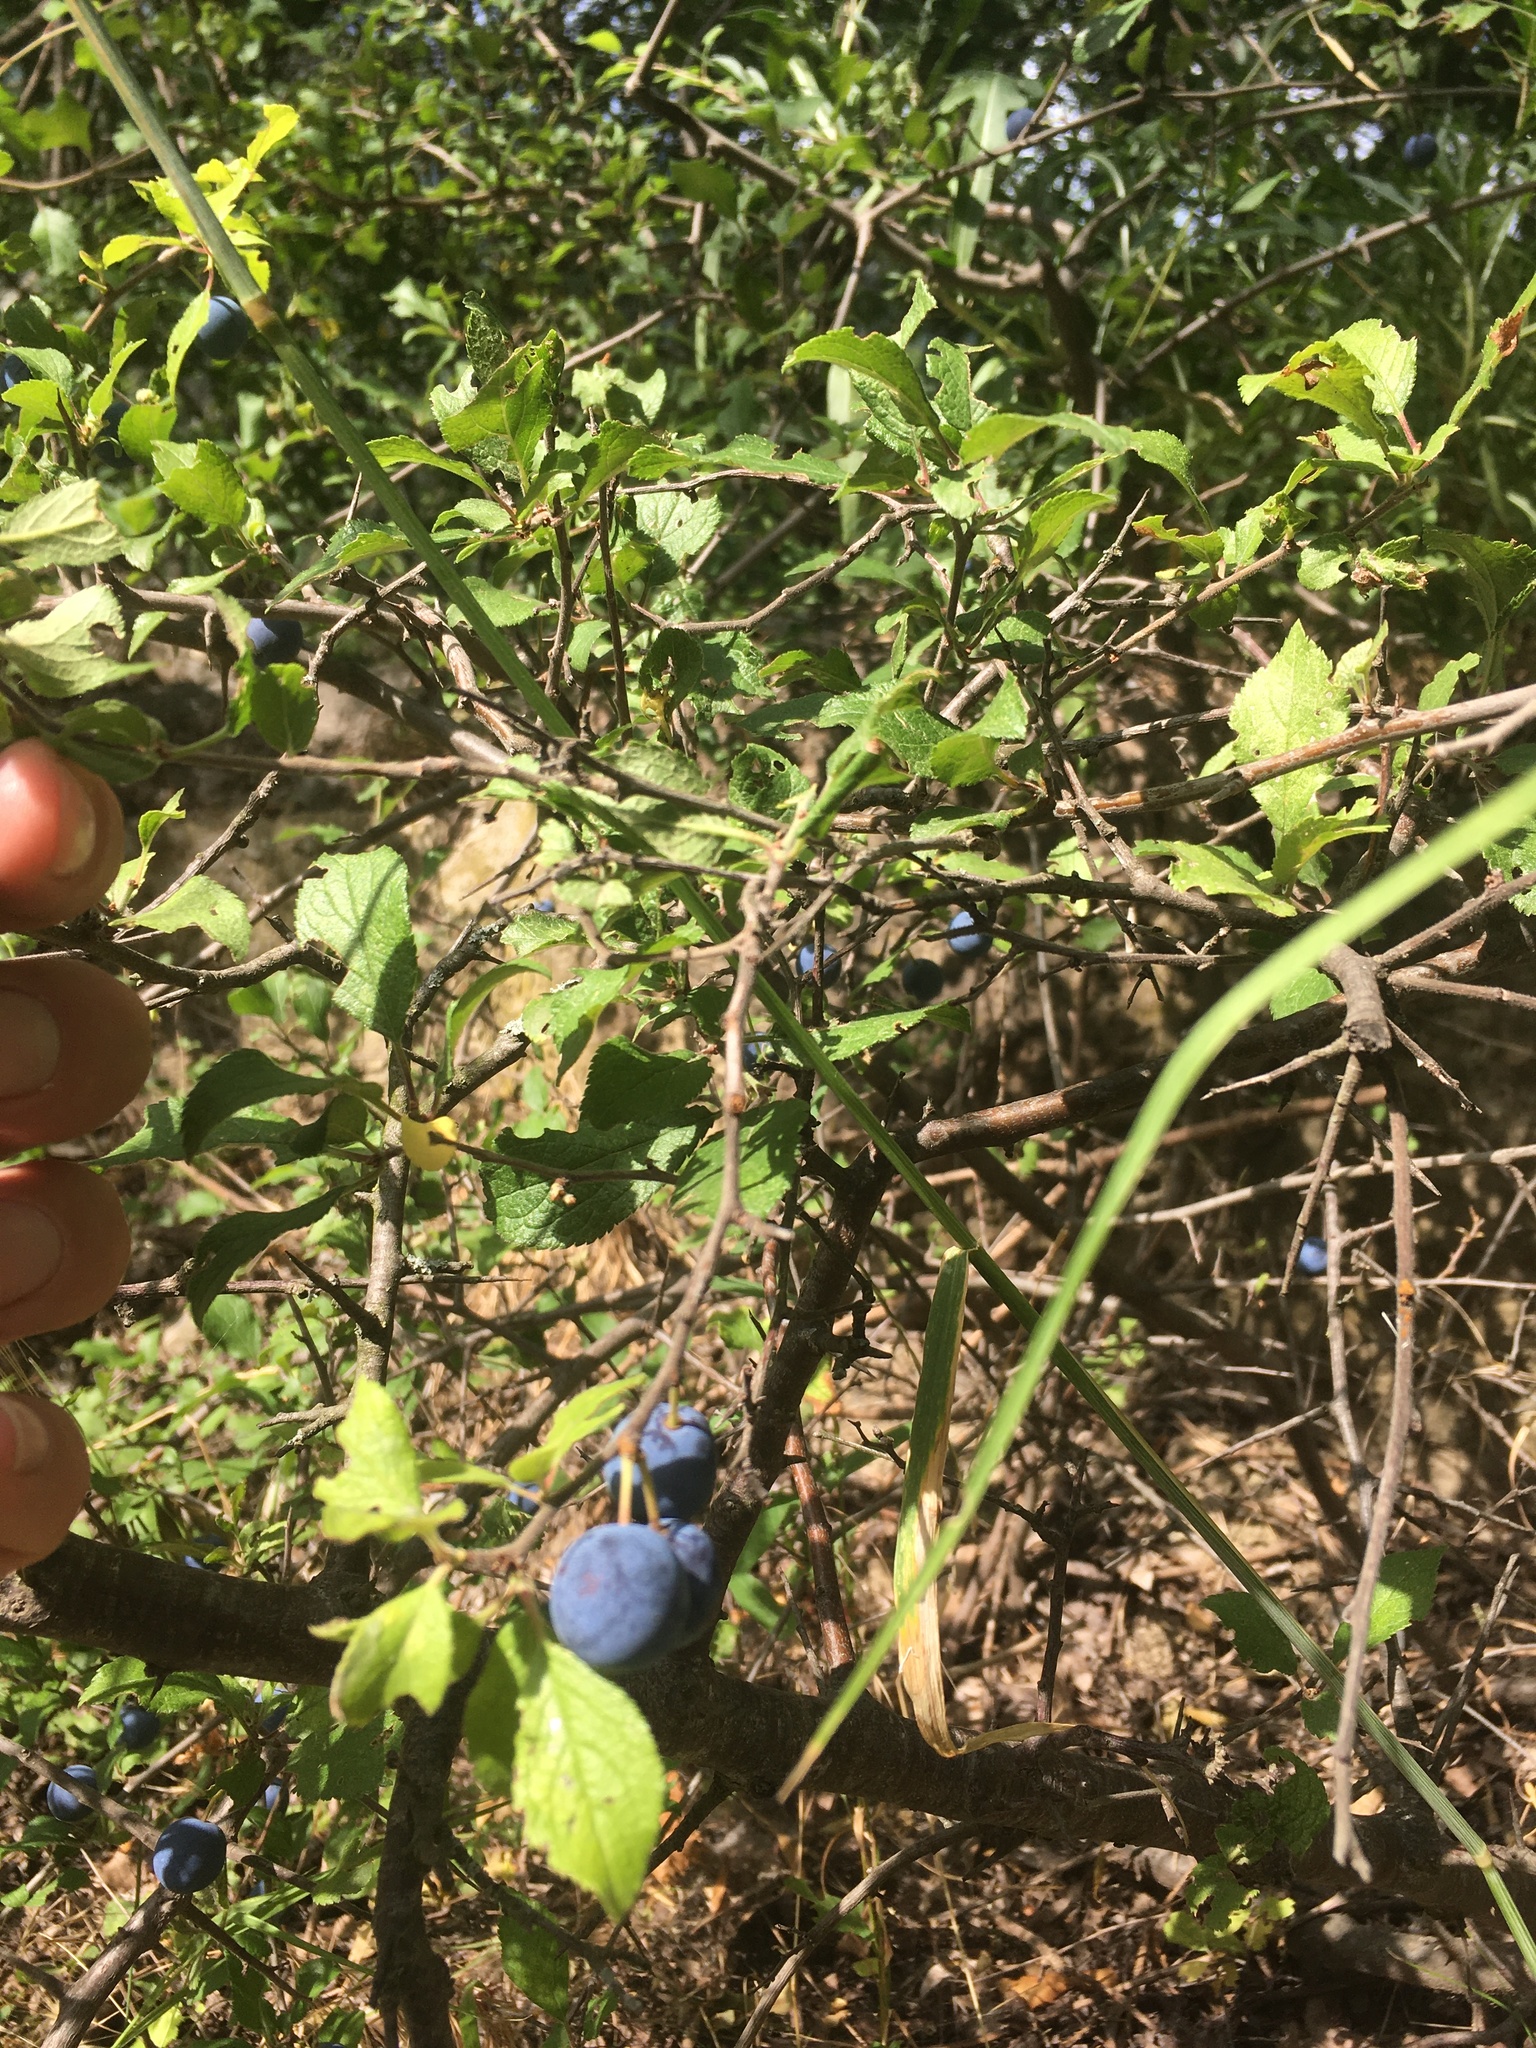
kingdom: Plantae
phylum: Tracheophyta
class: Magnoliopsida
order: Rosales
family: Rosaceae
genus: Prunus
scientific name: Prunus spinosa
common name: Blackthorn
